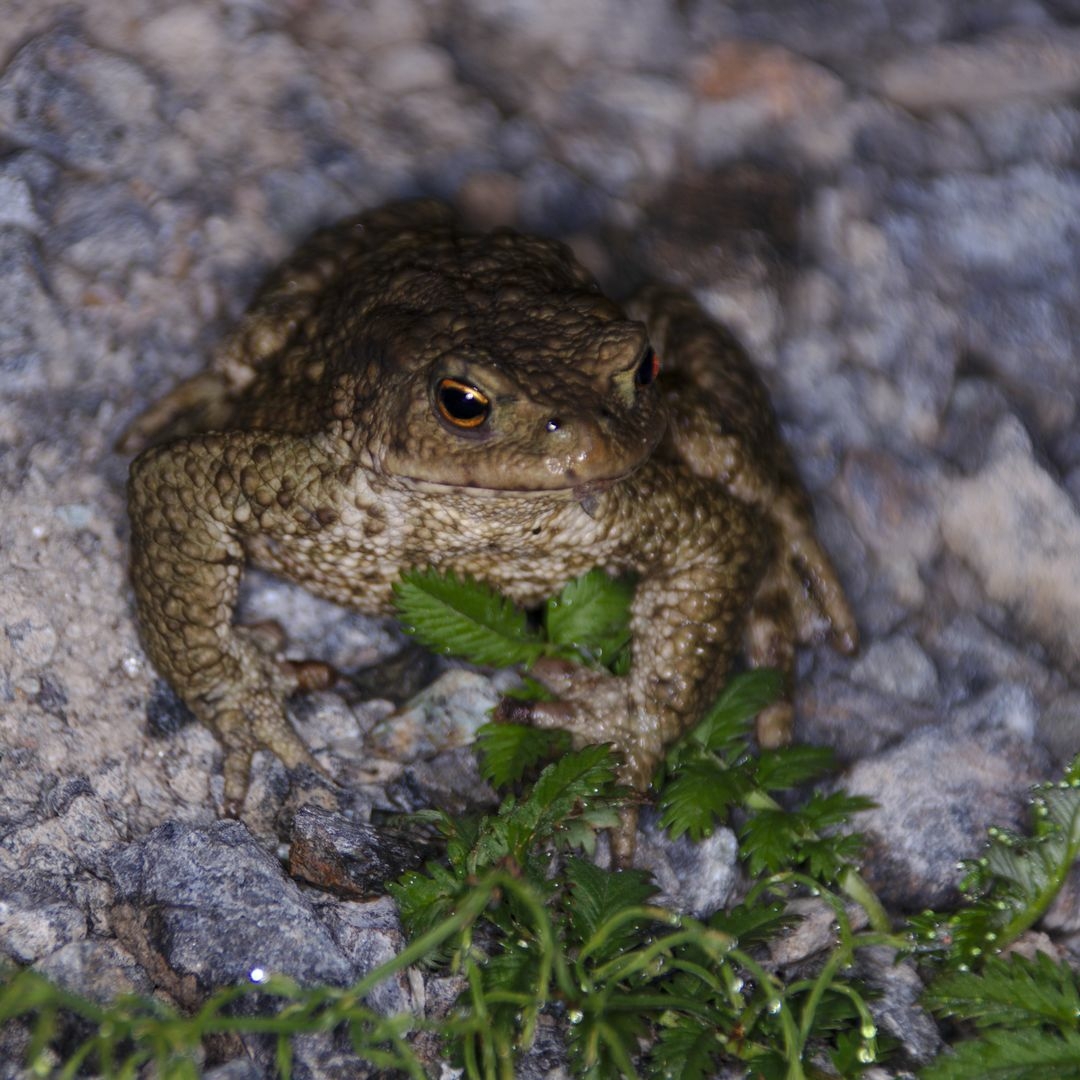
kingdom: Animalia
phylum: Chordata
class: Amphibia
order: Anura
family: Bufonidae
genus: Bufo
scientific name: Bufo bufo
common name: Common toad
